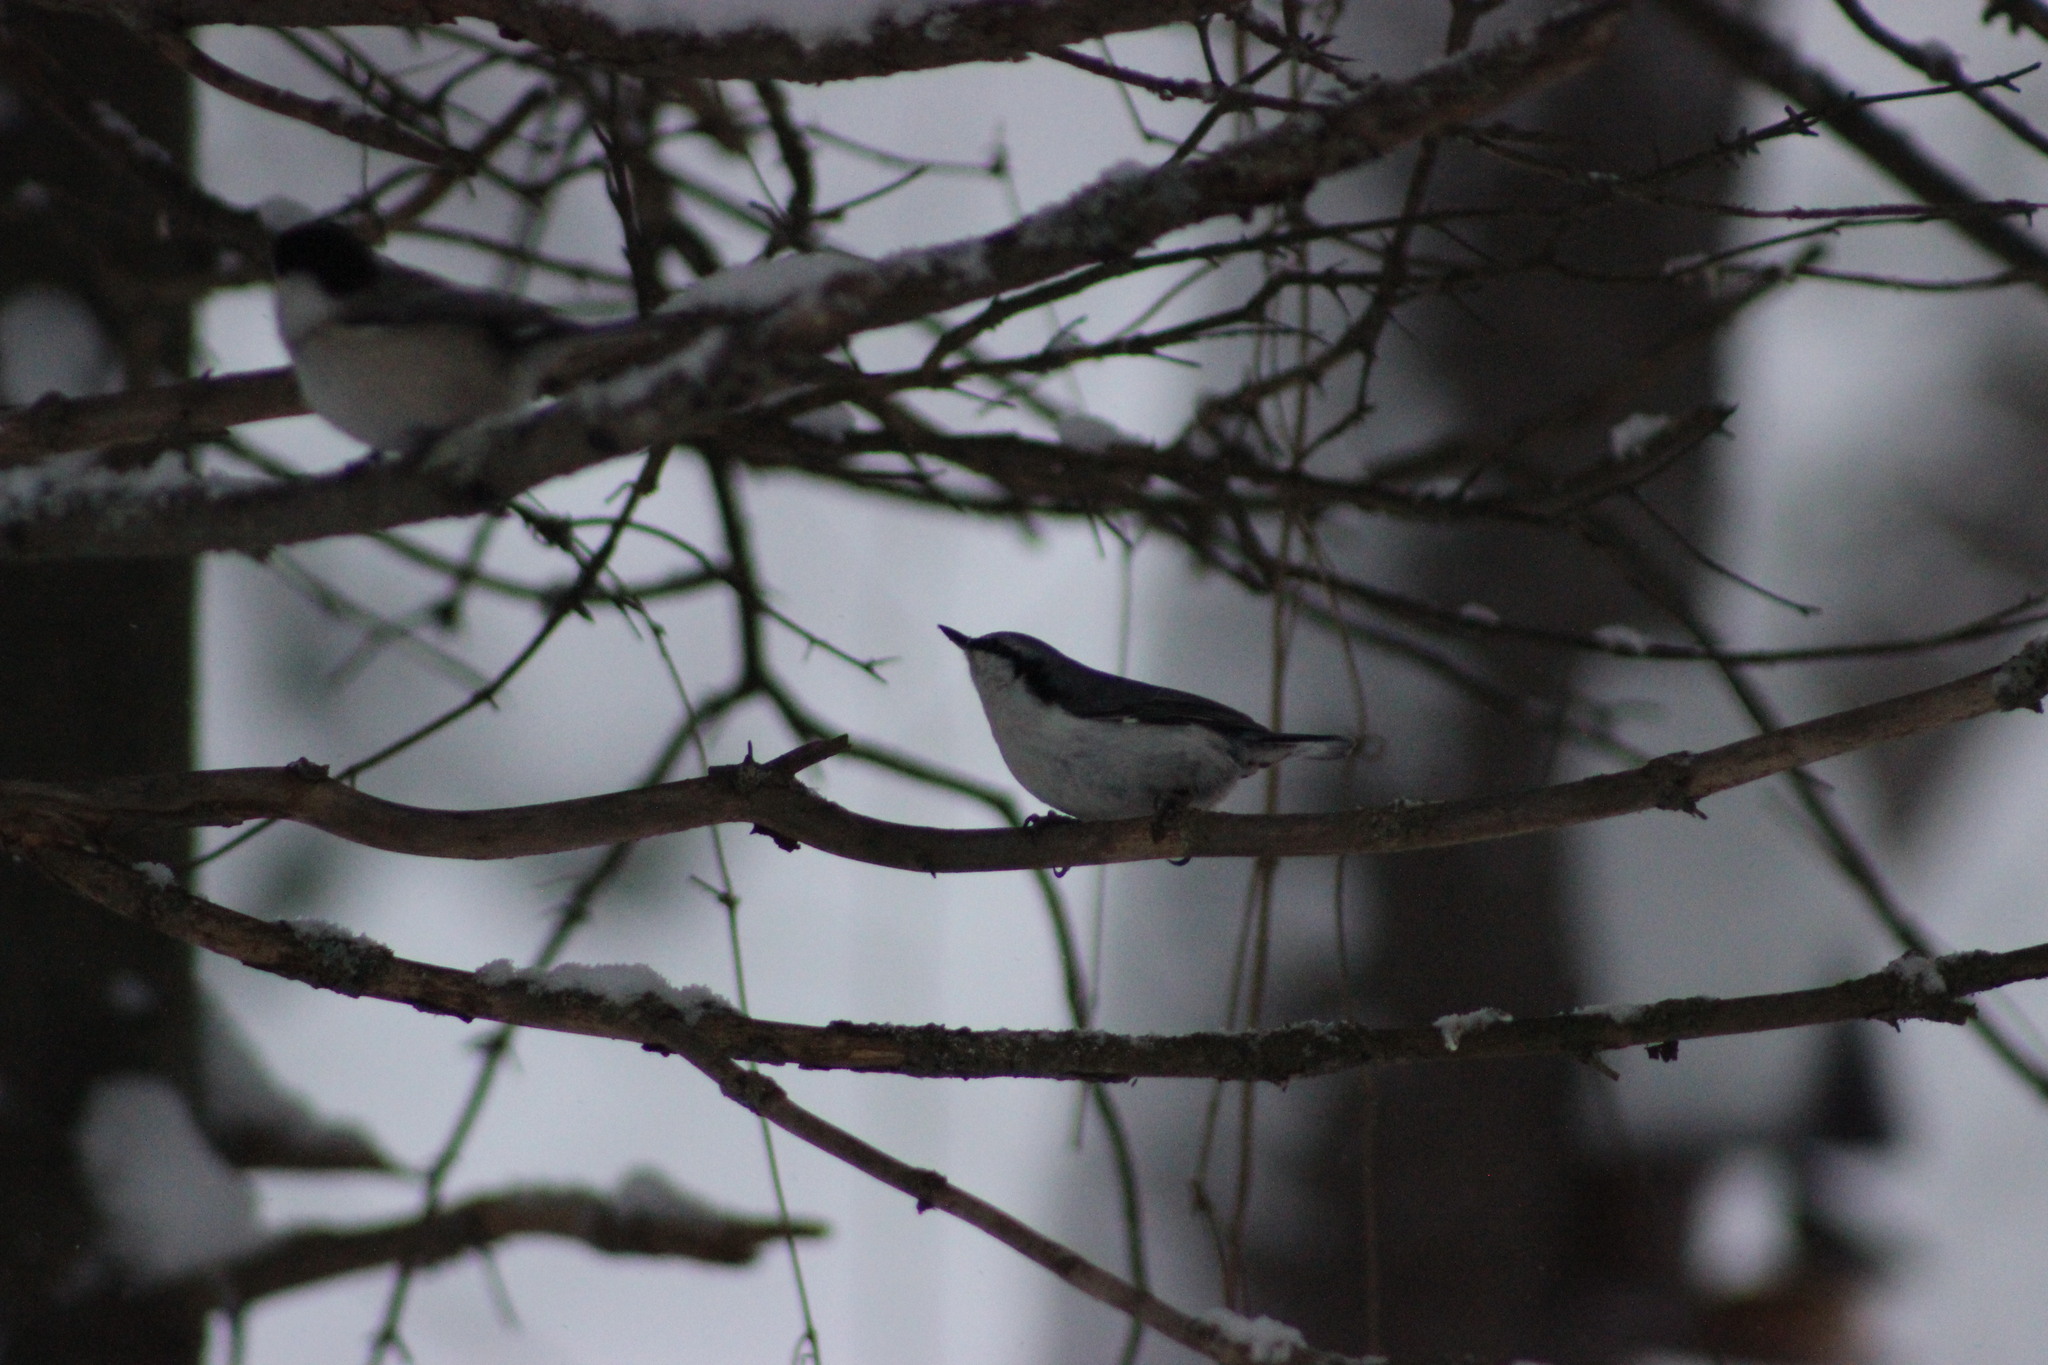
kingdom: Animalia
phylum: Chordata
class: Aves
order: Passeriformes
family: Sittidae
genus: Sitta
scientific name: Sitta europaea
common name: Eurasian nuthatch
